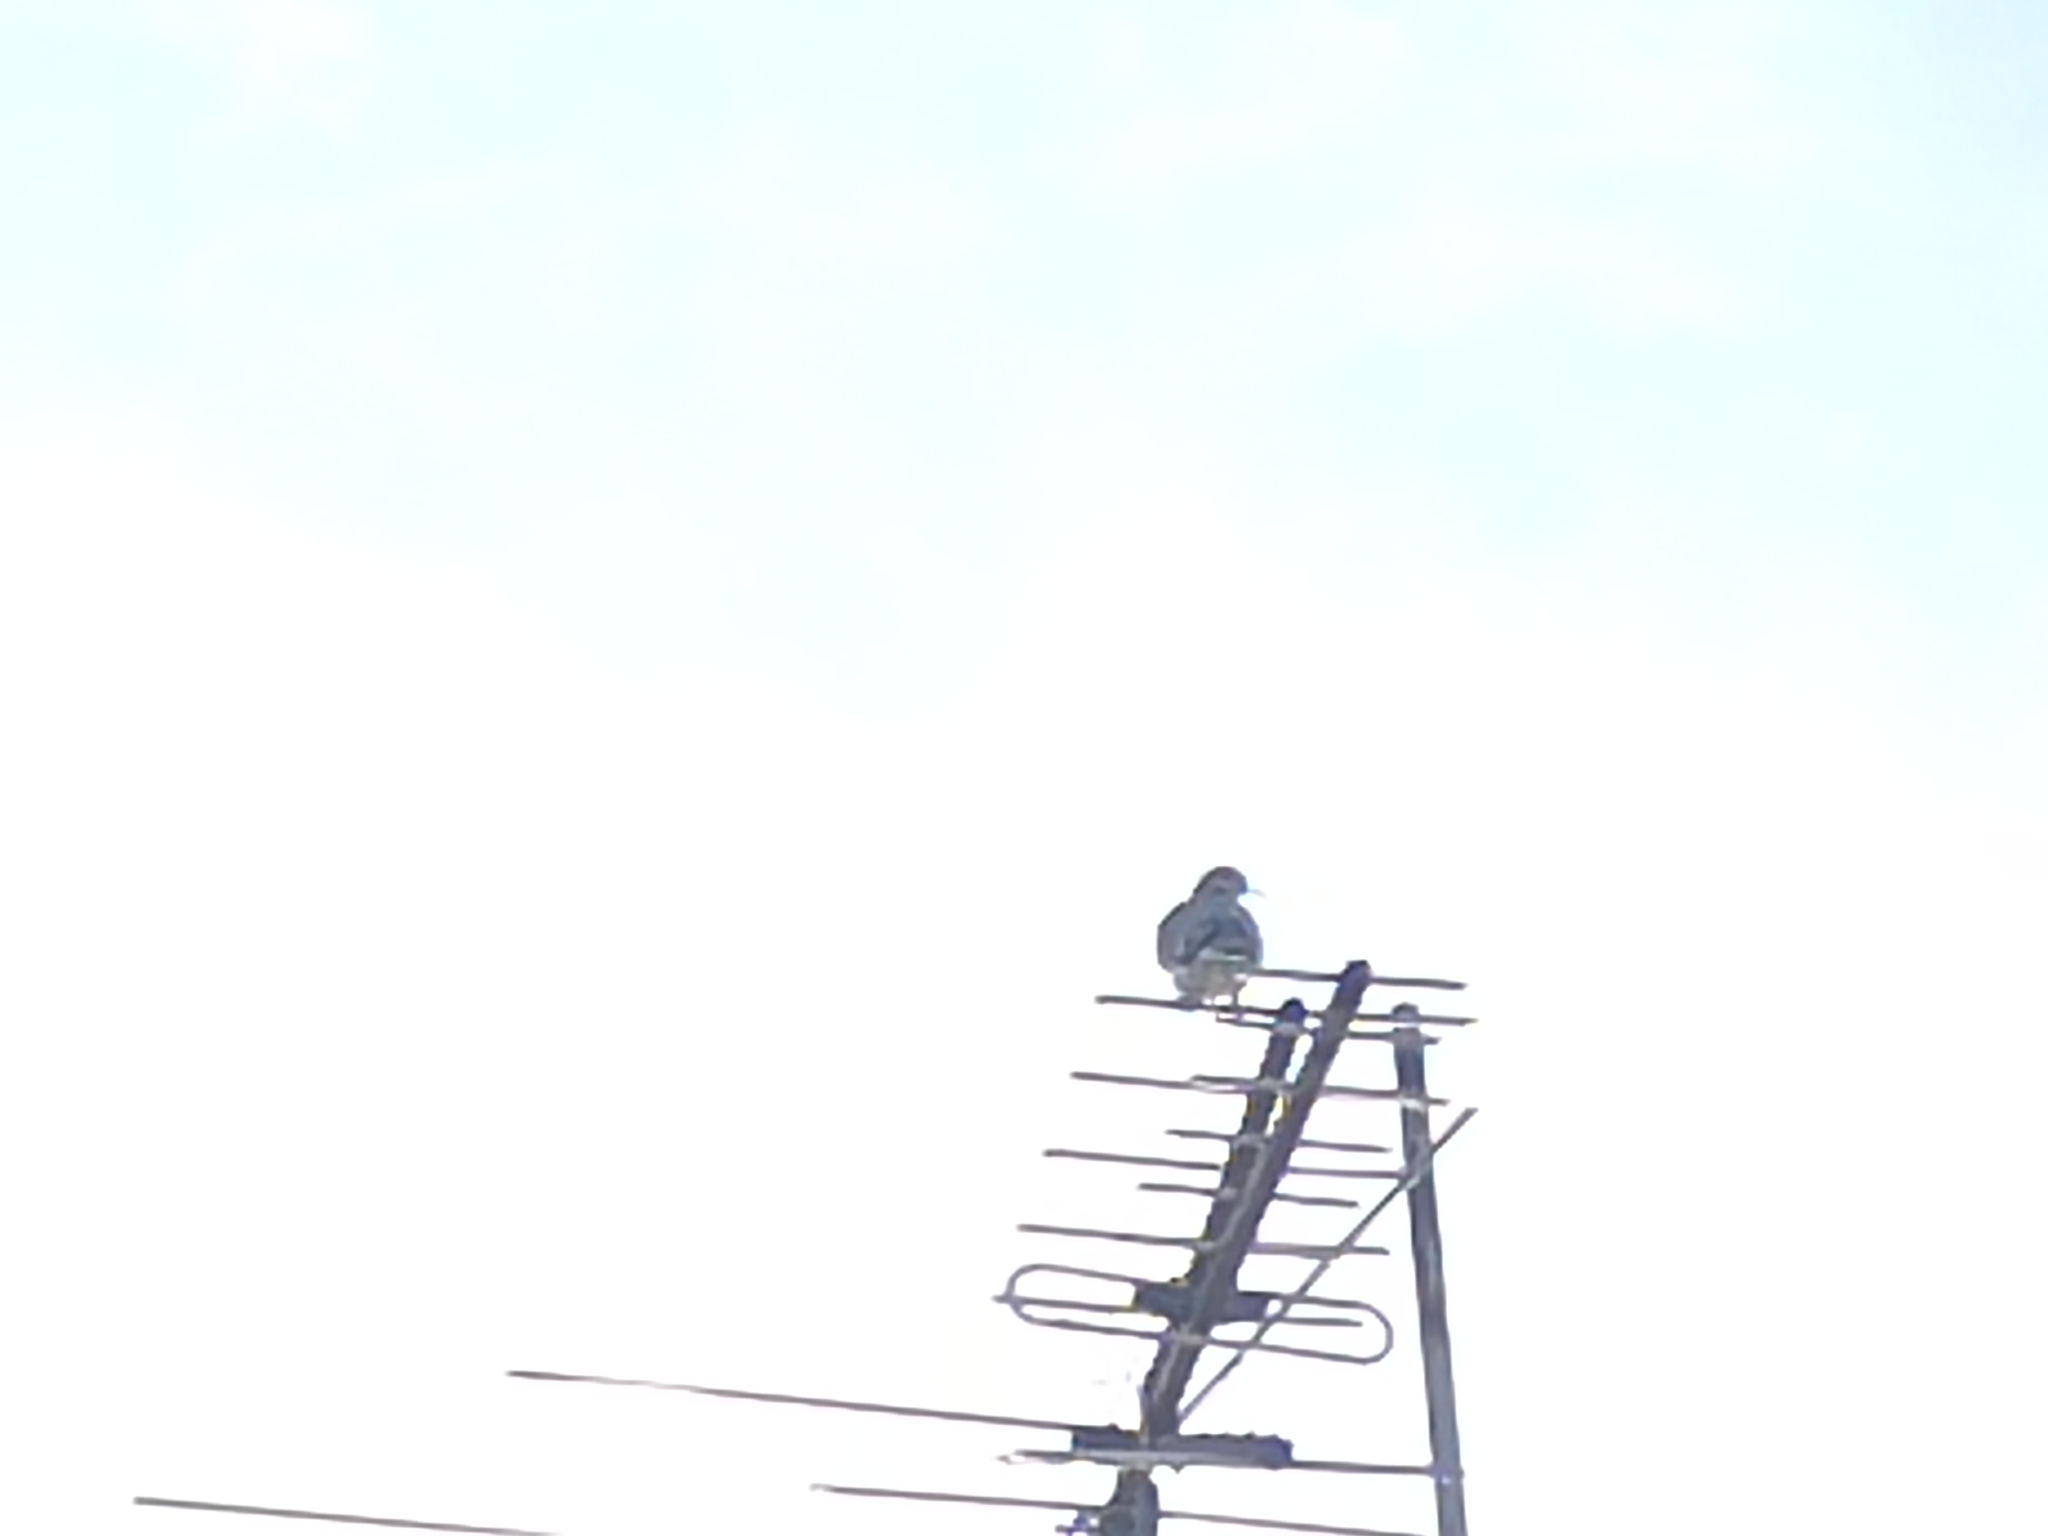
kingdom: Animalia
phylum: Chordata
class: Aves
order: Columbiformes
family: Columbidae
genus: Zenaida
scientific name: Zenaida asiatica
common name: White-winged dove
